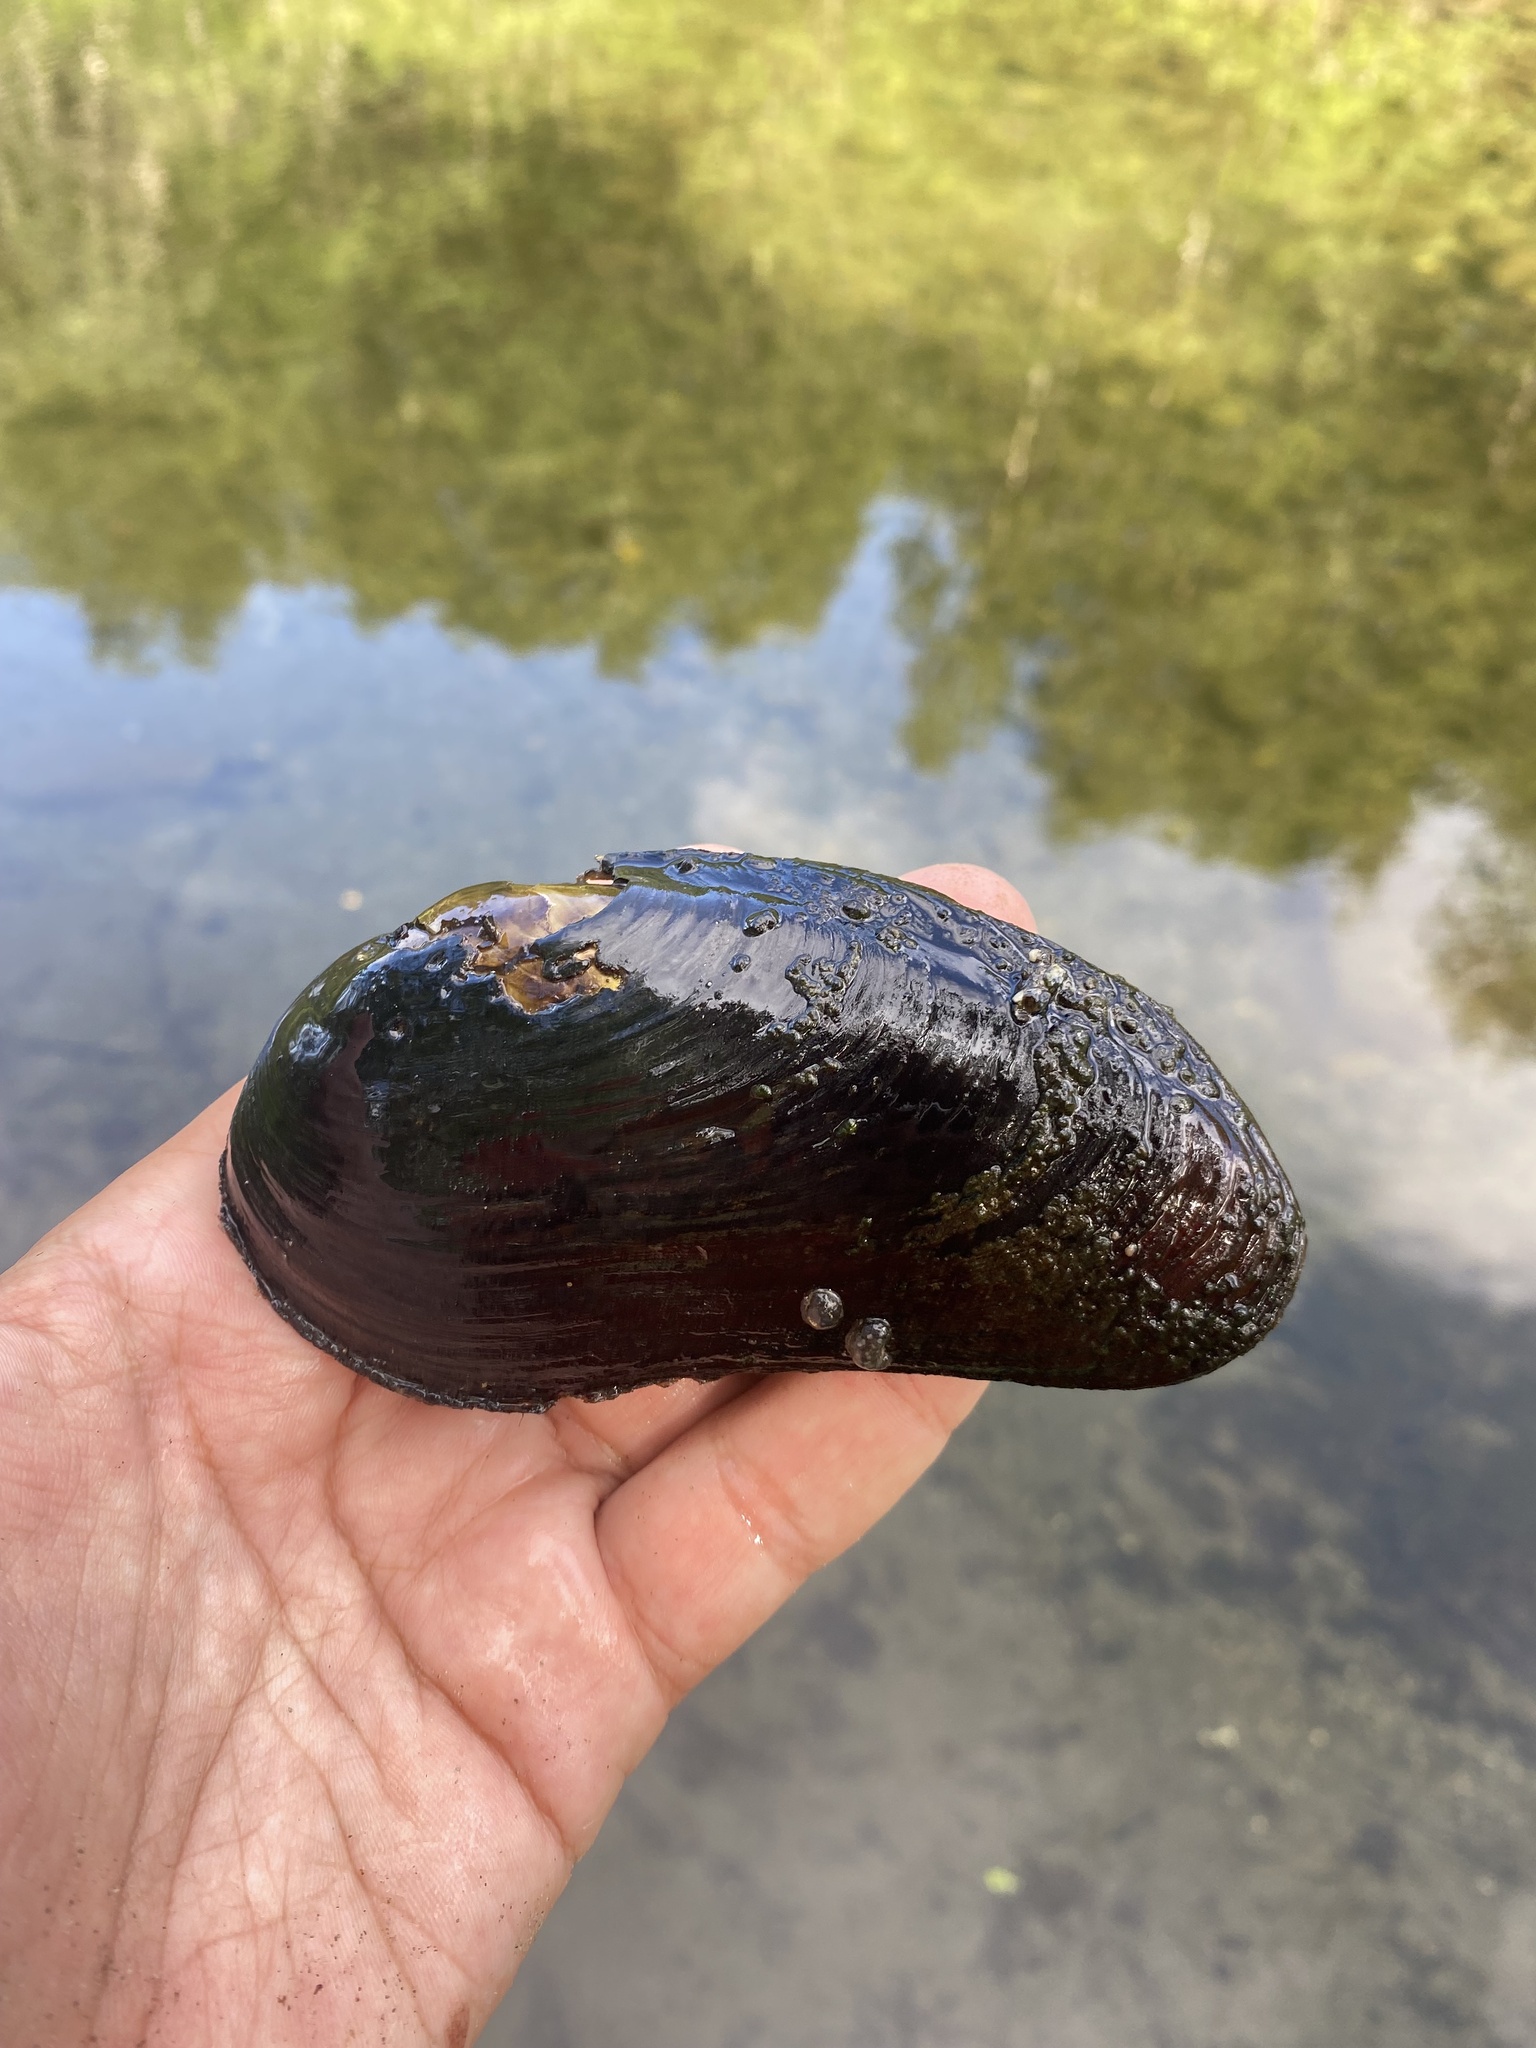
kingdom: Animalia
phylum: Mollusca
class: Bivalvia
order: Unionida
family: Margaritiferidae
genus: Margaritifera
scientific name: Margaritifera margaritifera
